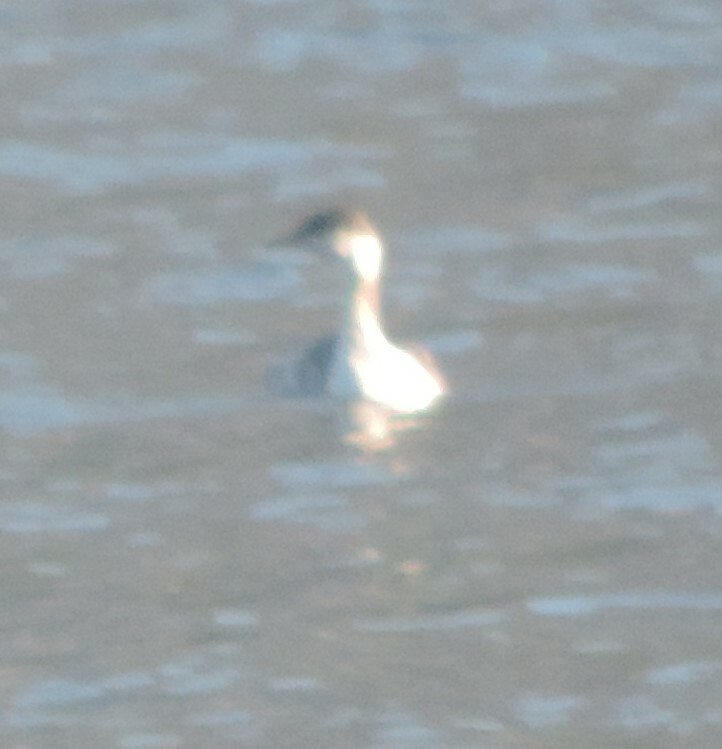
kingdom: Animalia
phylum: Chordata
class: Aves
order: Podicipediformes
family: Podicipedidae
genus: Podiceps
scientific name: Podiceps auritus
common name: Horned grebe
